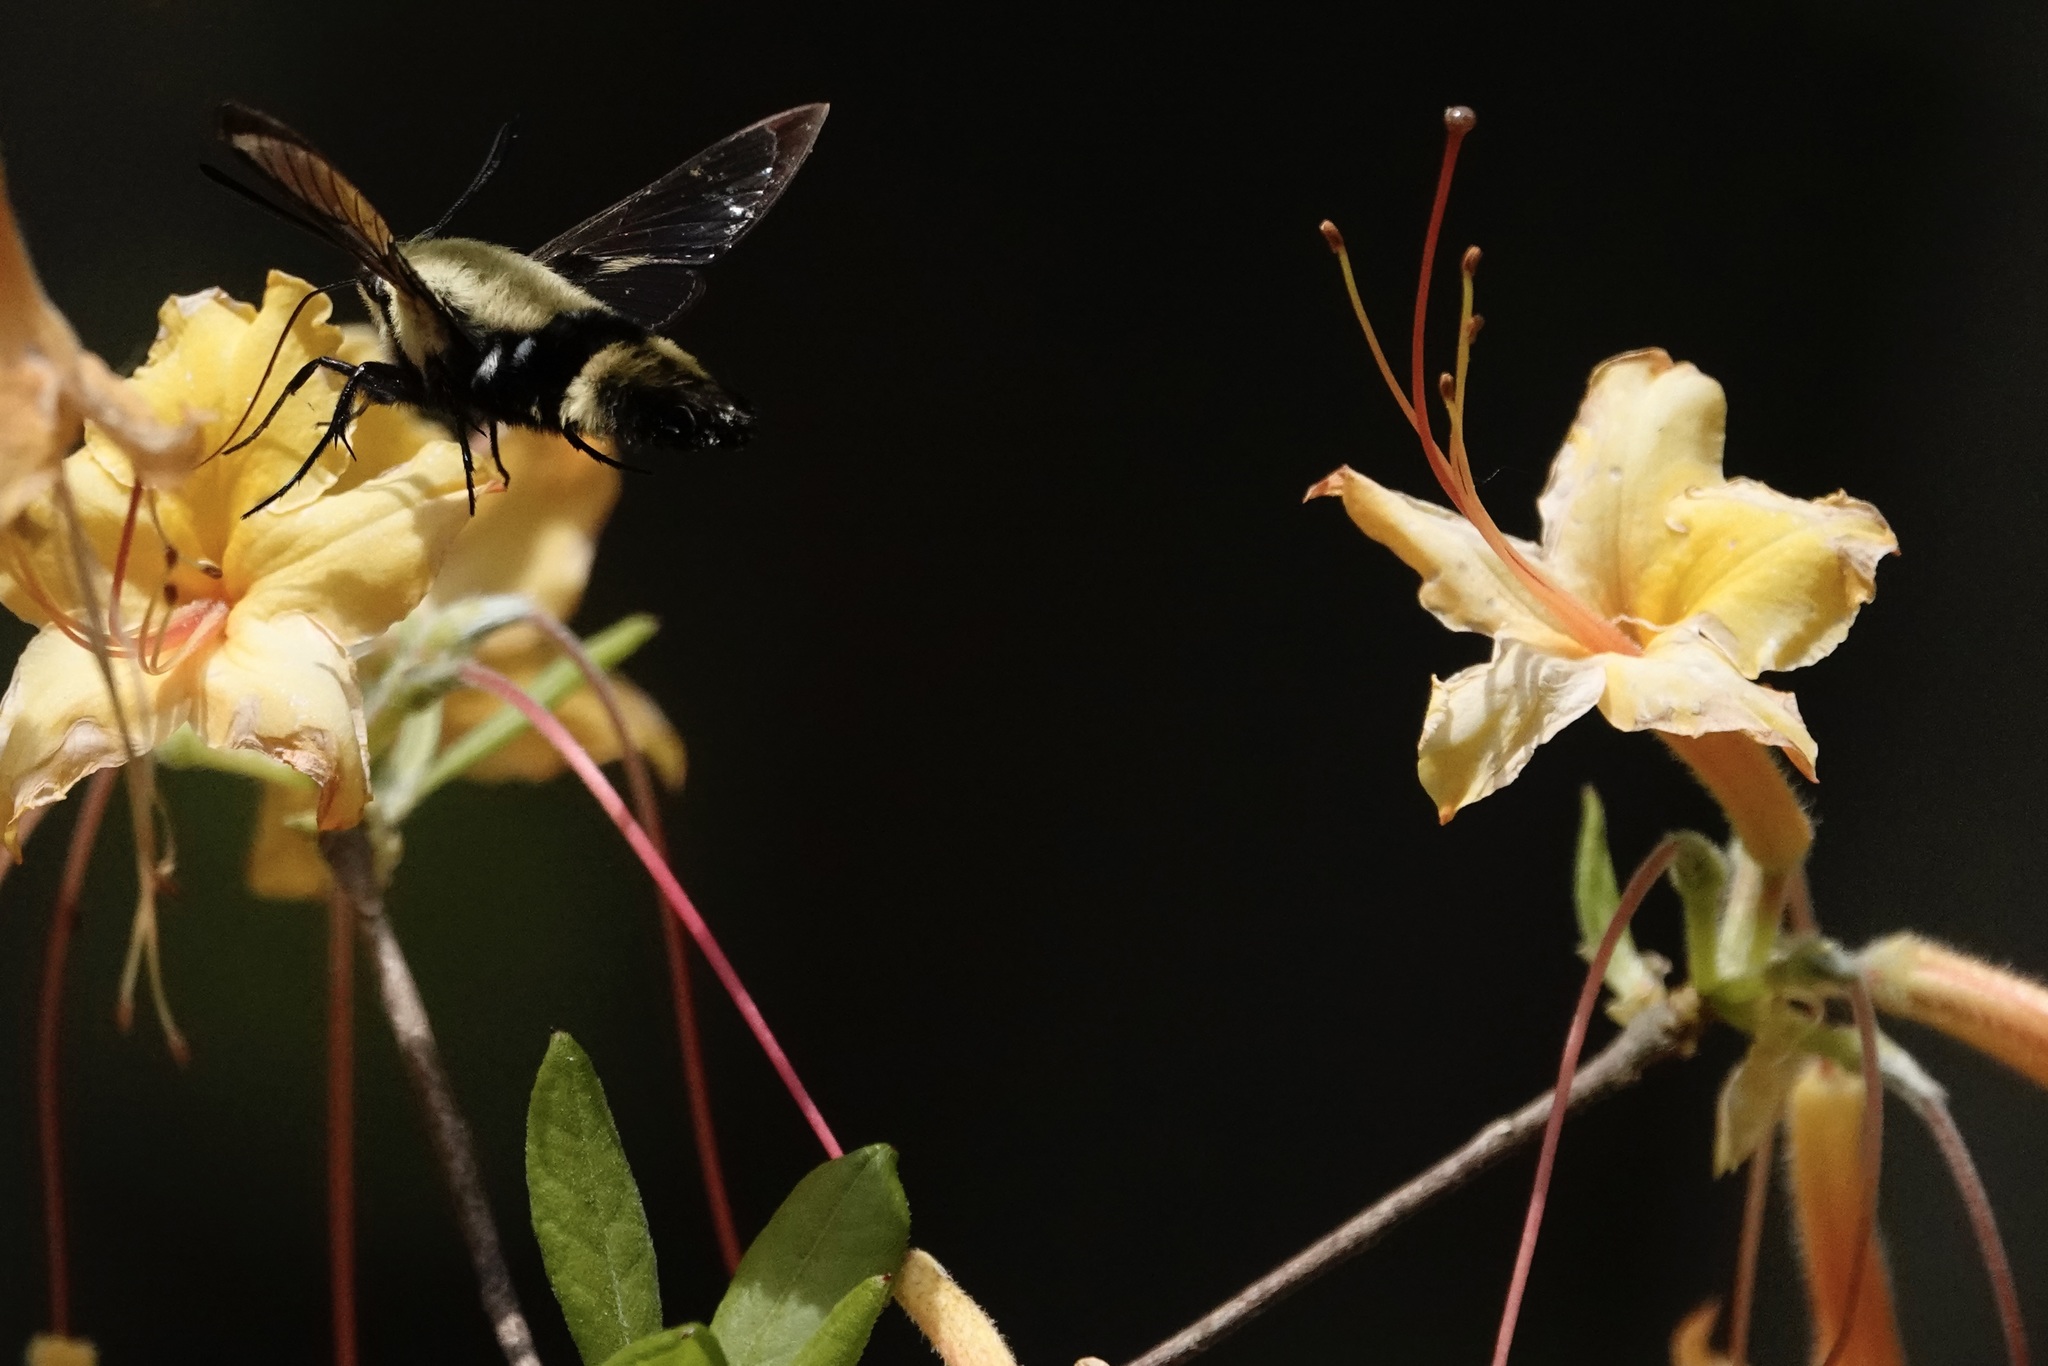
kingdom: Animalia
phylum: Arthropoda
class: Insecta
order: Lepidoptera
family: Sphingidae
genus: Hemaris
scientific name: Hemaris diffinis
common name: Bumblebee moth
